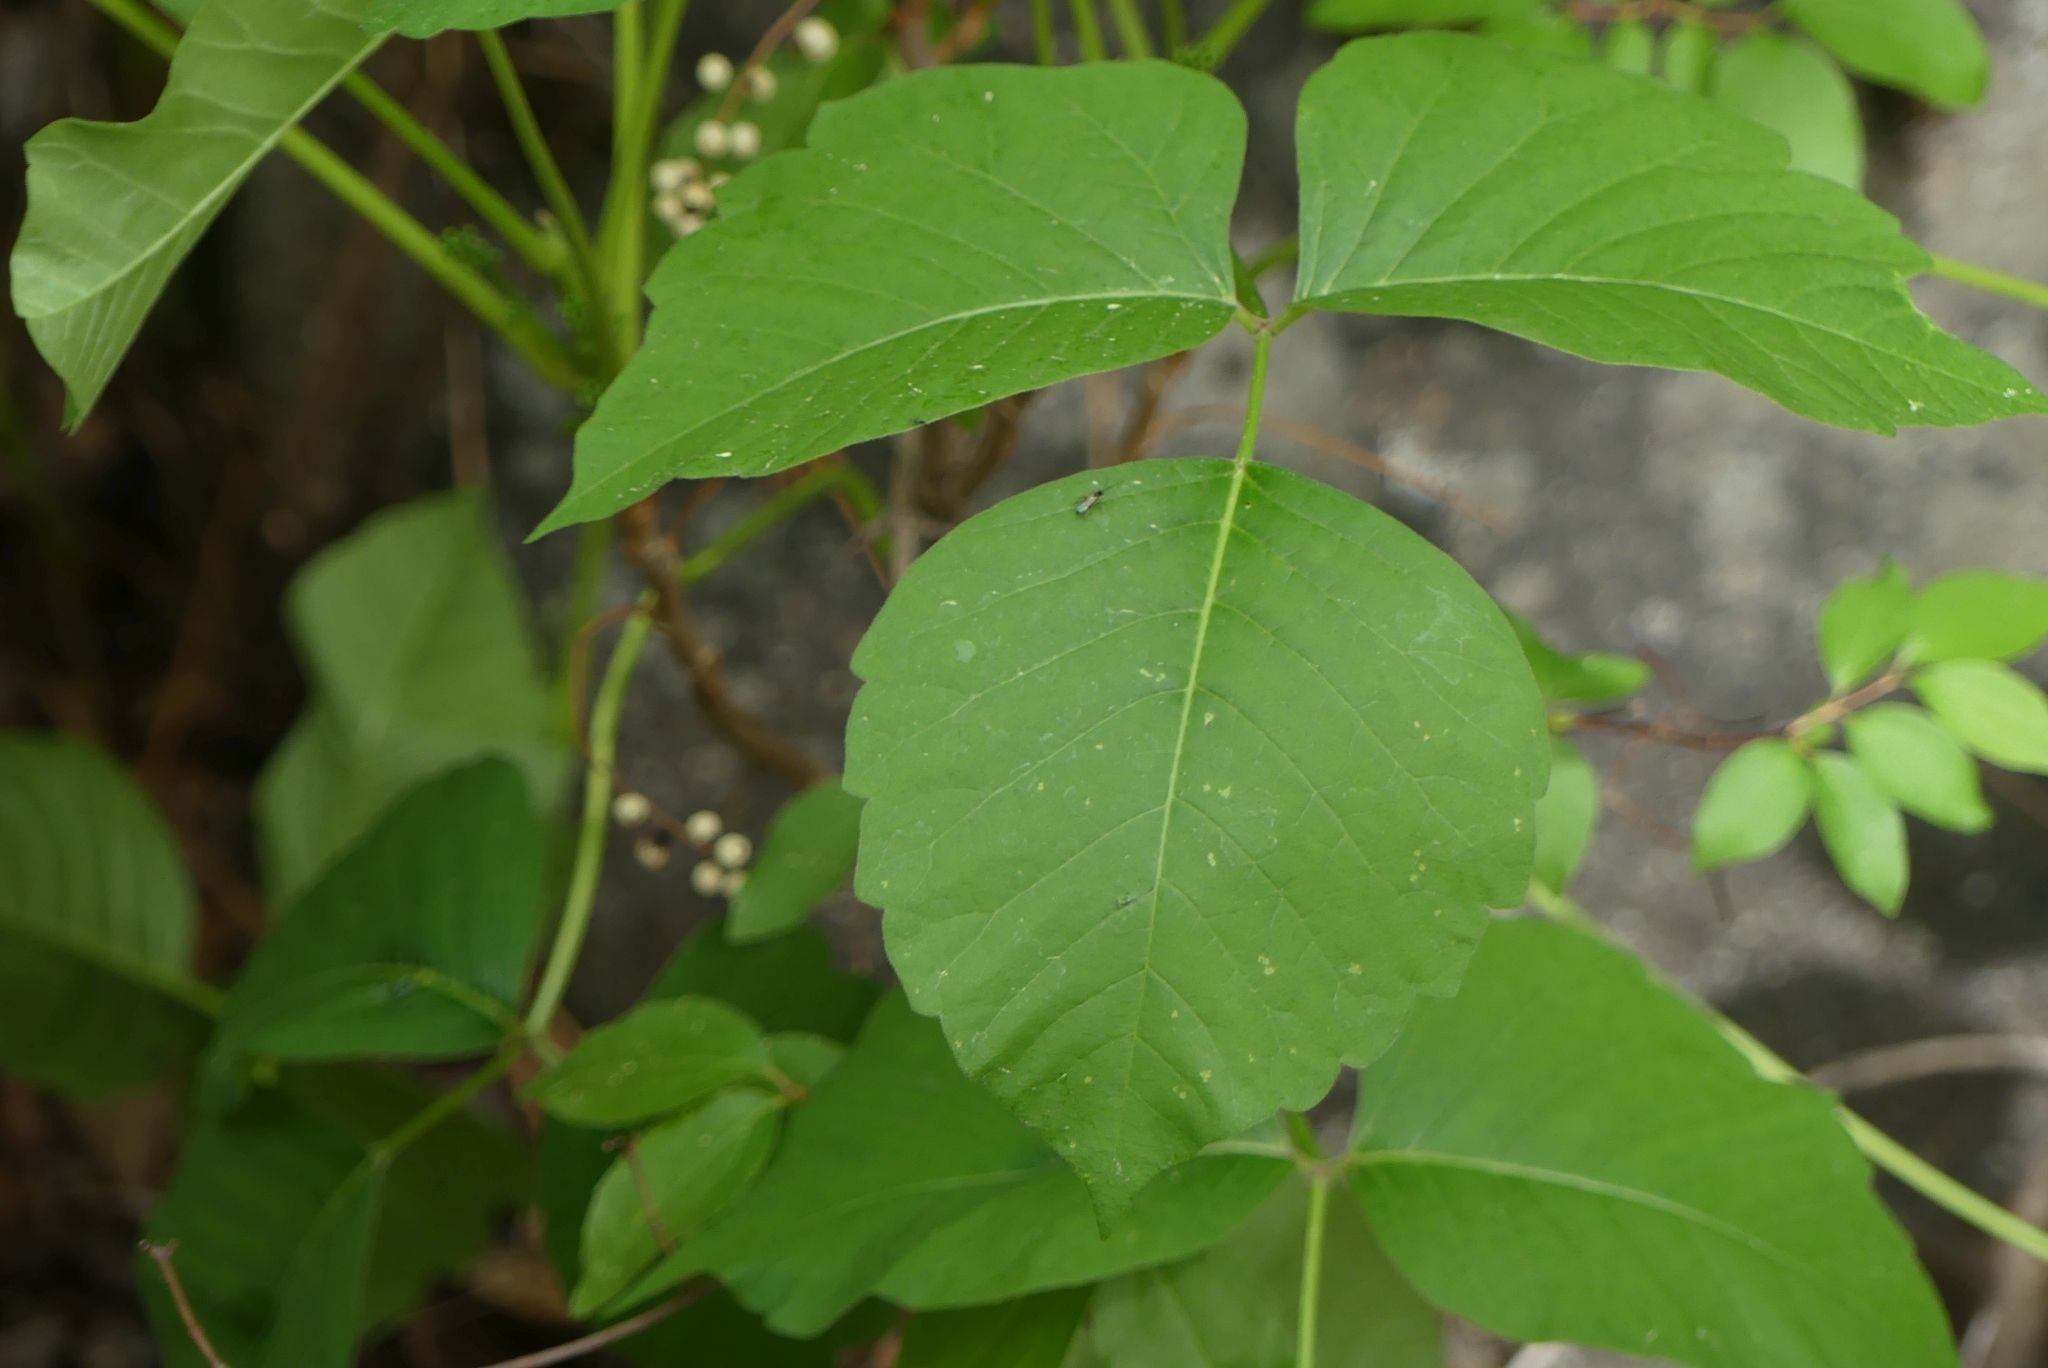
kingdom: Plantae
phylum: Tracheophyta
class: Magnoliopsida
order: Sapindales
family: Anacardiaceae
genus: Toxicodendron
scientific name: Toxicodendron rydbergii
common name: Rydberg's poison-ivy
